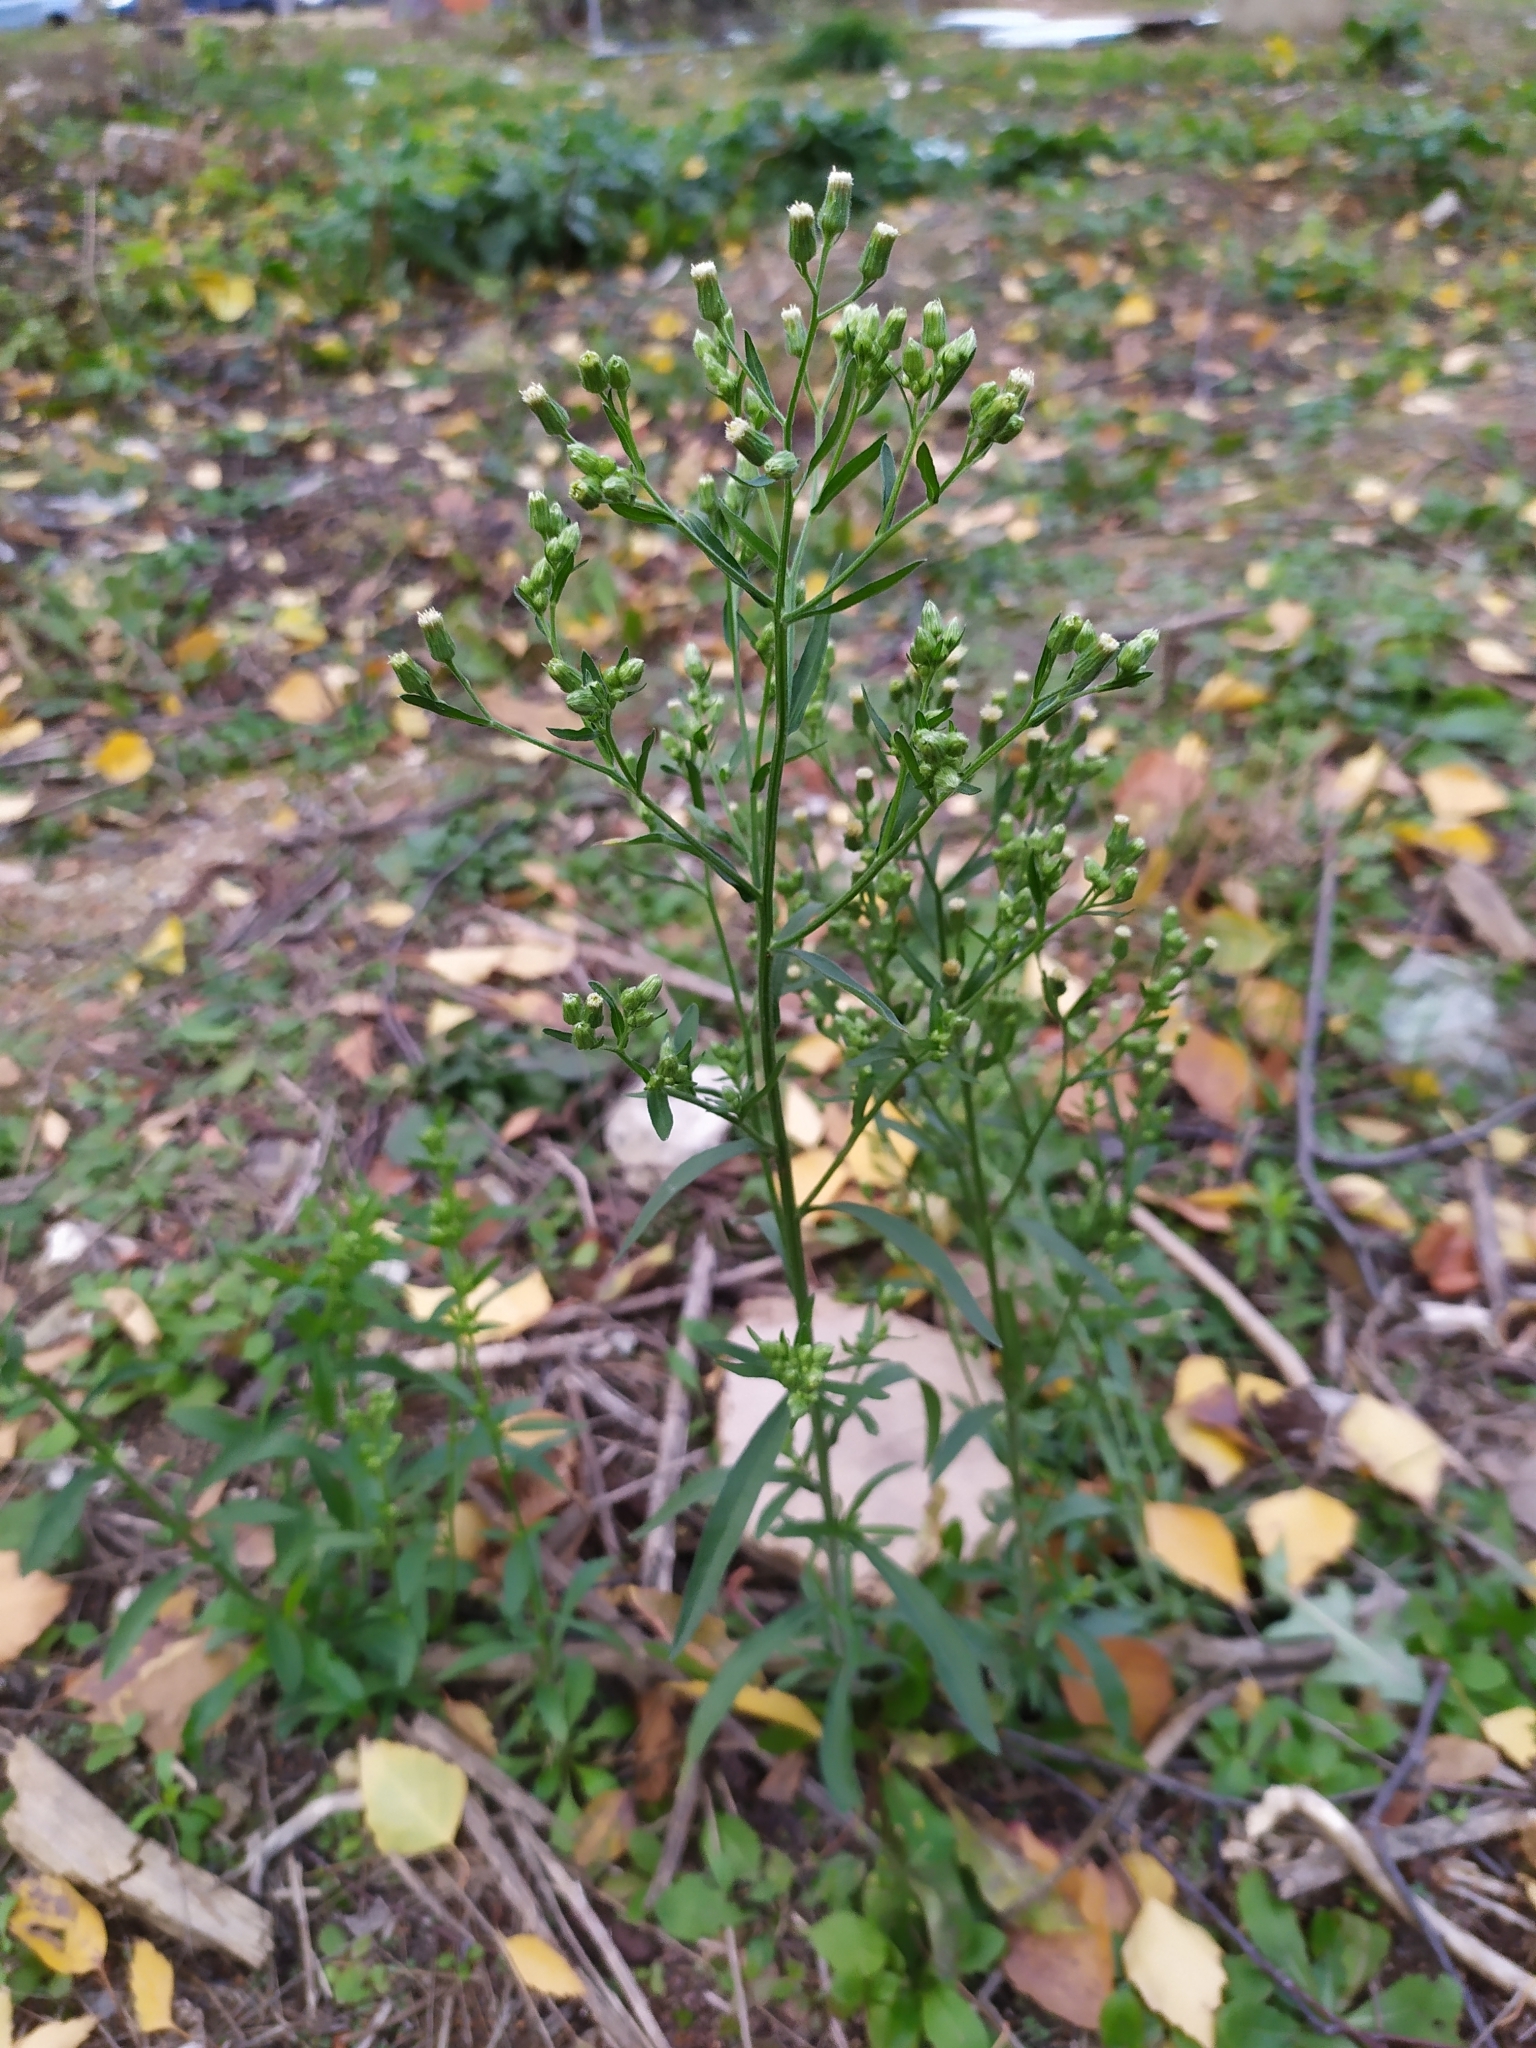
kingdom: Plantae
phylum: Tracheophyta
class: Magnoliopsida
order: Asterales
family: Asteraceae
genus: Erigeron
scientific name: Erigeron sumatrensis
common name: Daisy
